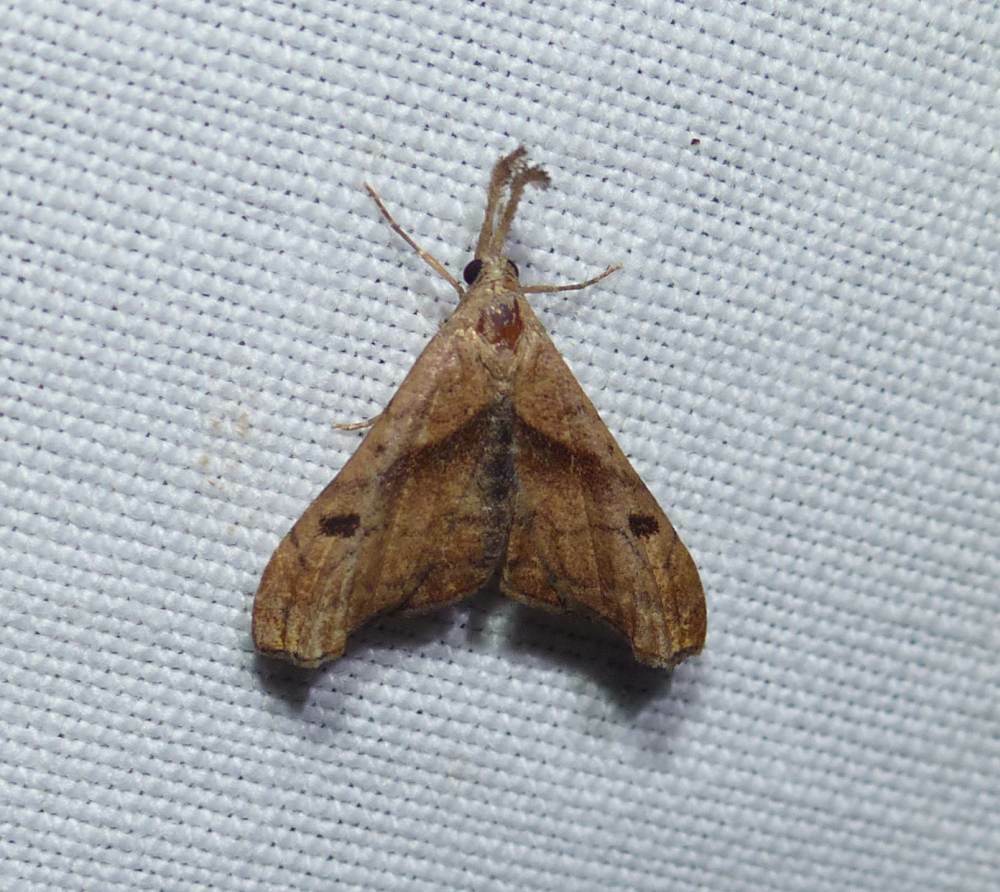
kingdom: Animalia
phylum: Arthropoda
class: Insecta
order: Lepidoptera
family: Erebidae
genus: Palthis
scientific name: Palthis angulalis
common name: Dark-spotted palthis moth
